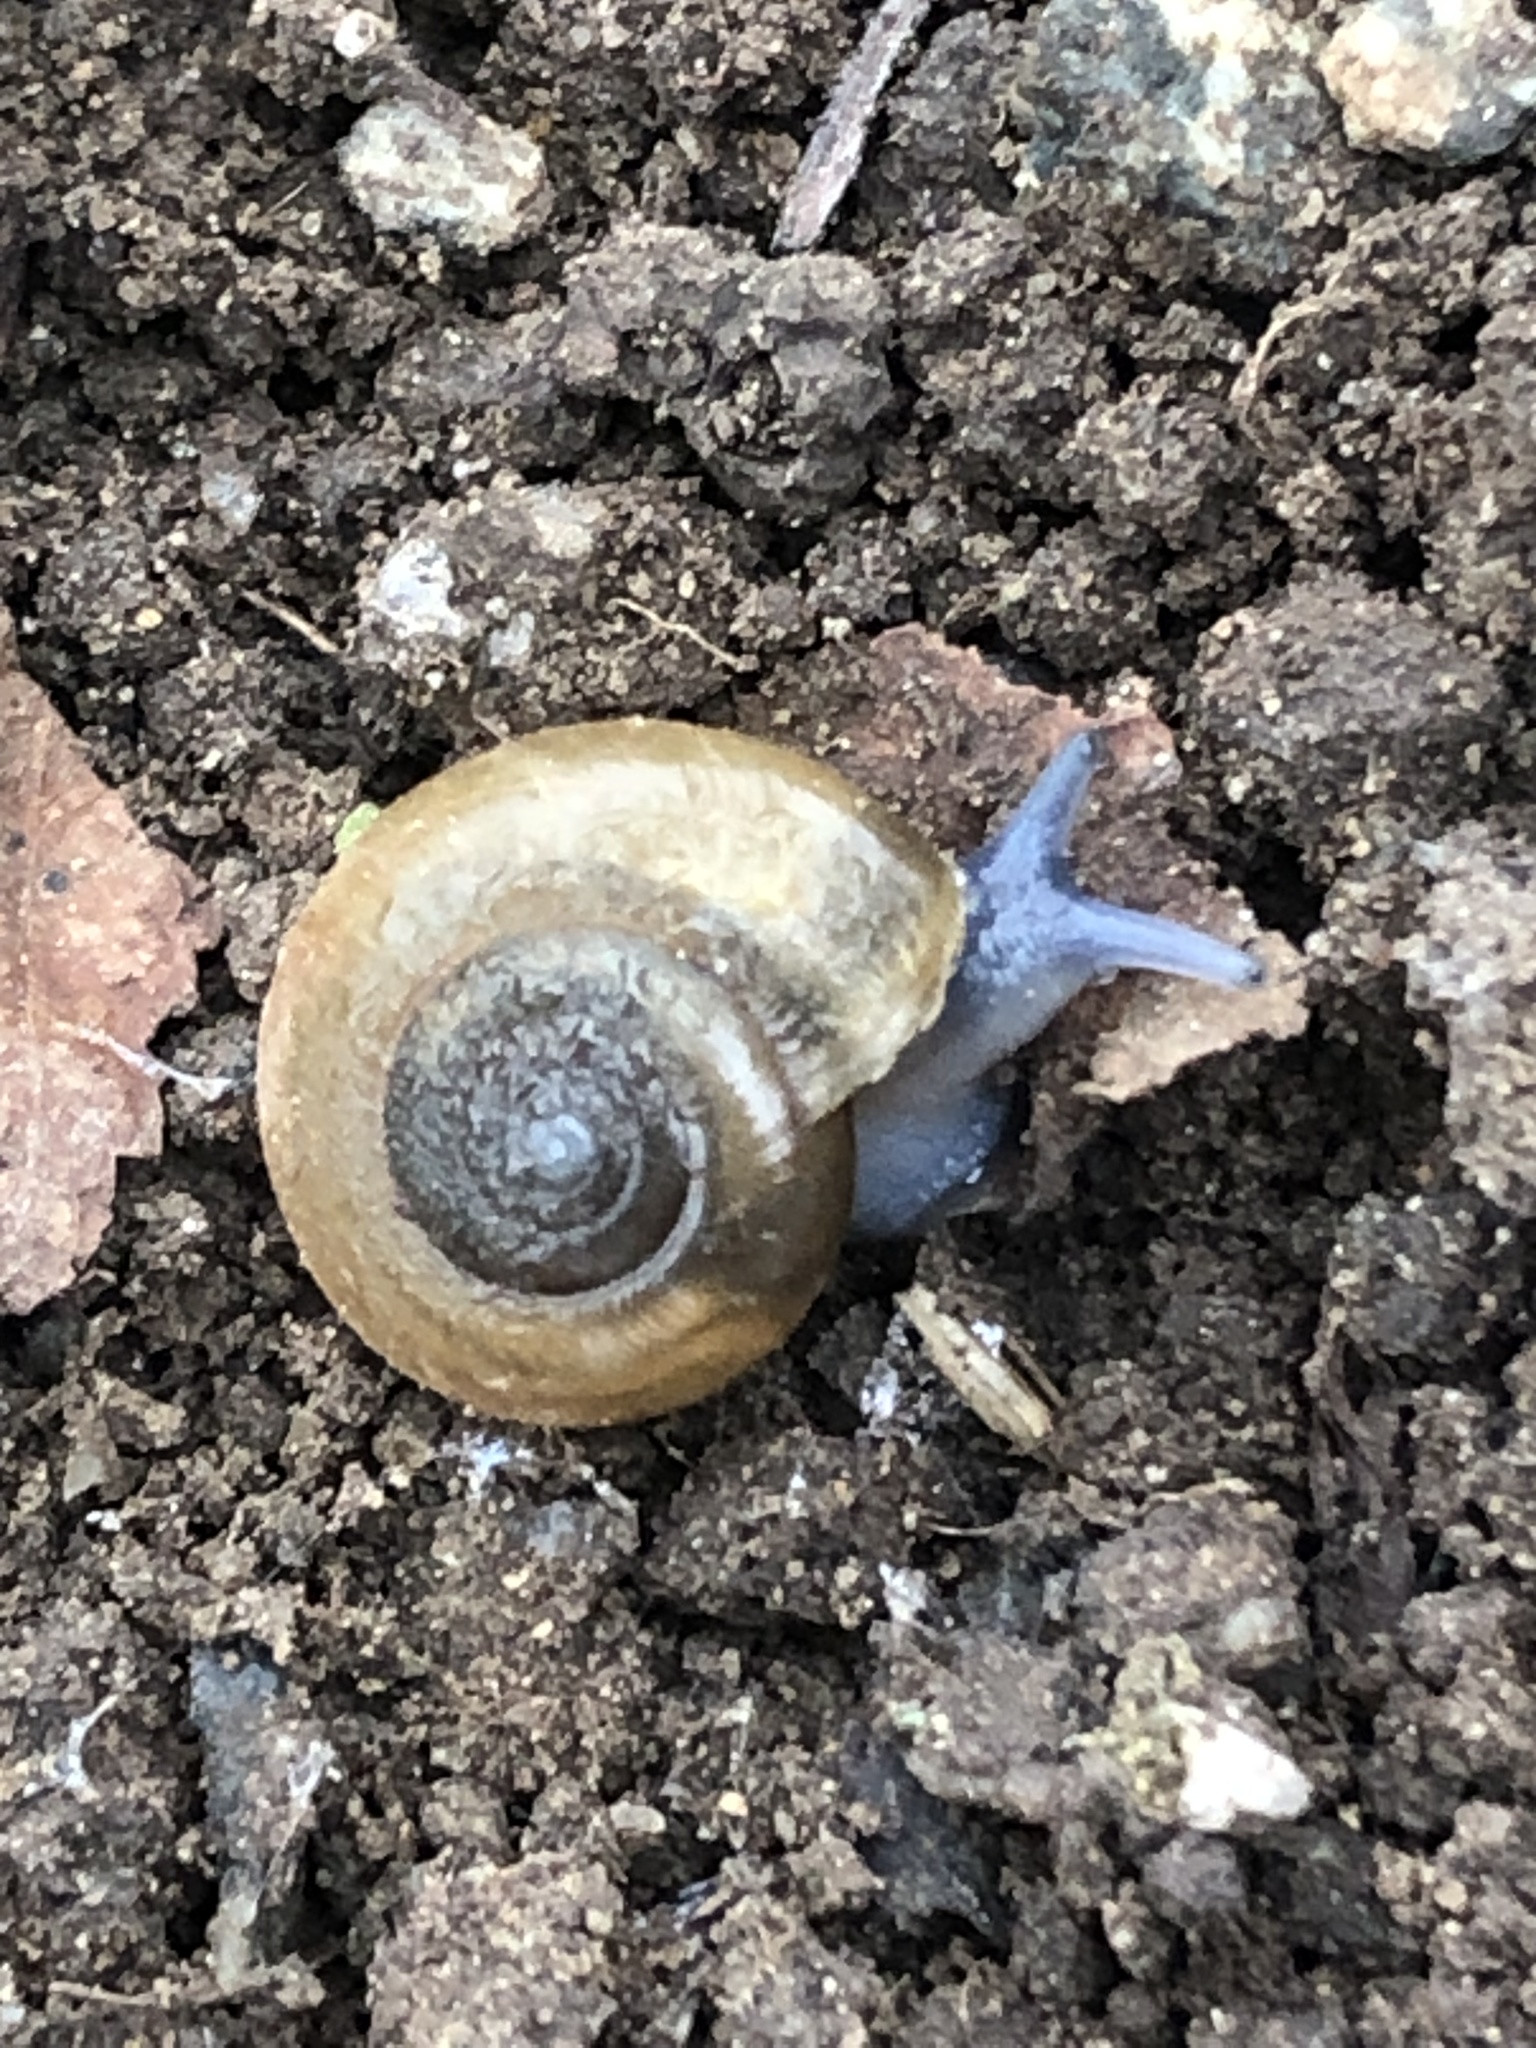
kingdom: Animalia
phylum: Mollusca
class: Gastropoda
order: Stylommatophora
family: Oxychilidae
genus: Oxychilus
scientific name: Oxychilus draparnaudi
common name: Draparnaud's glass snail
